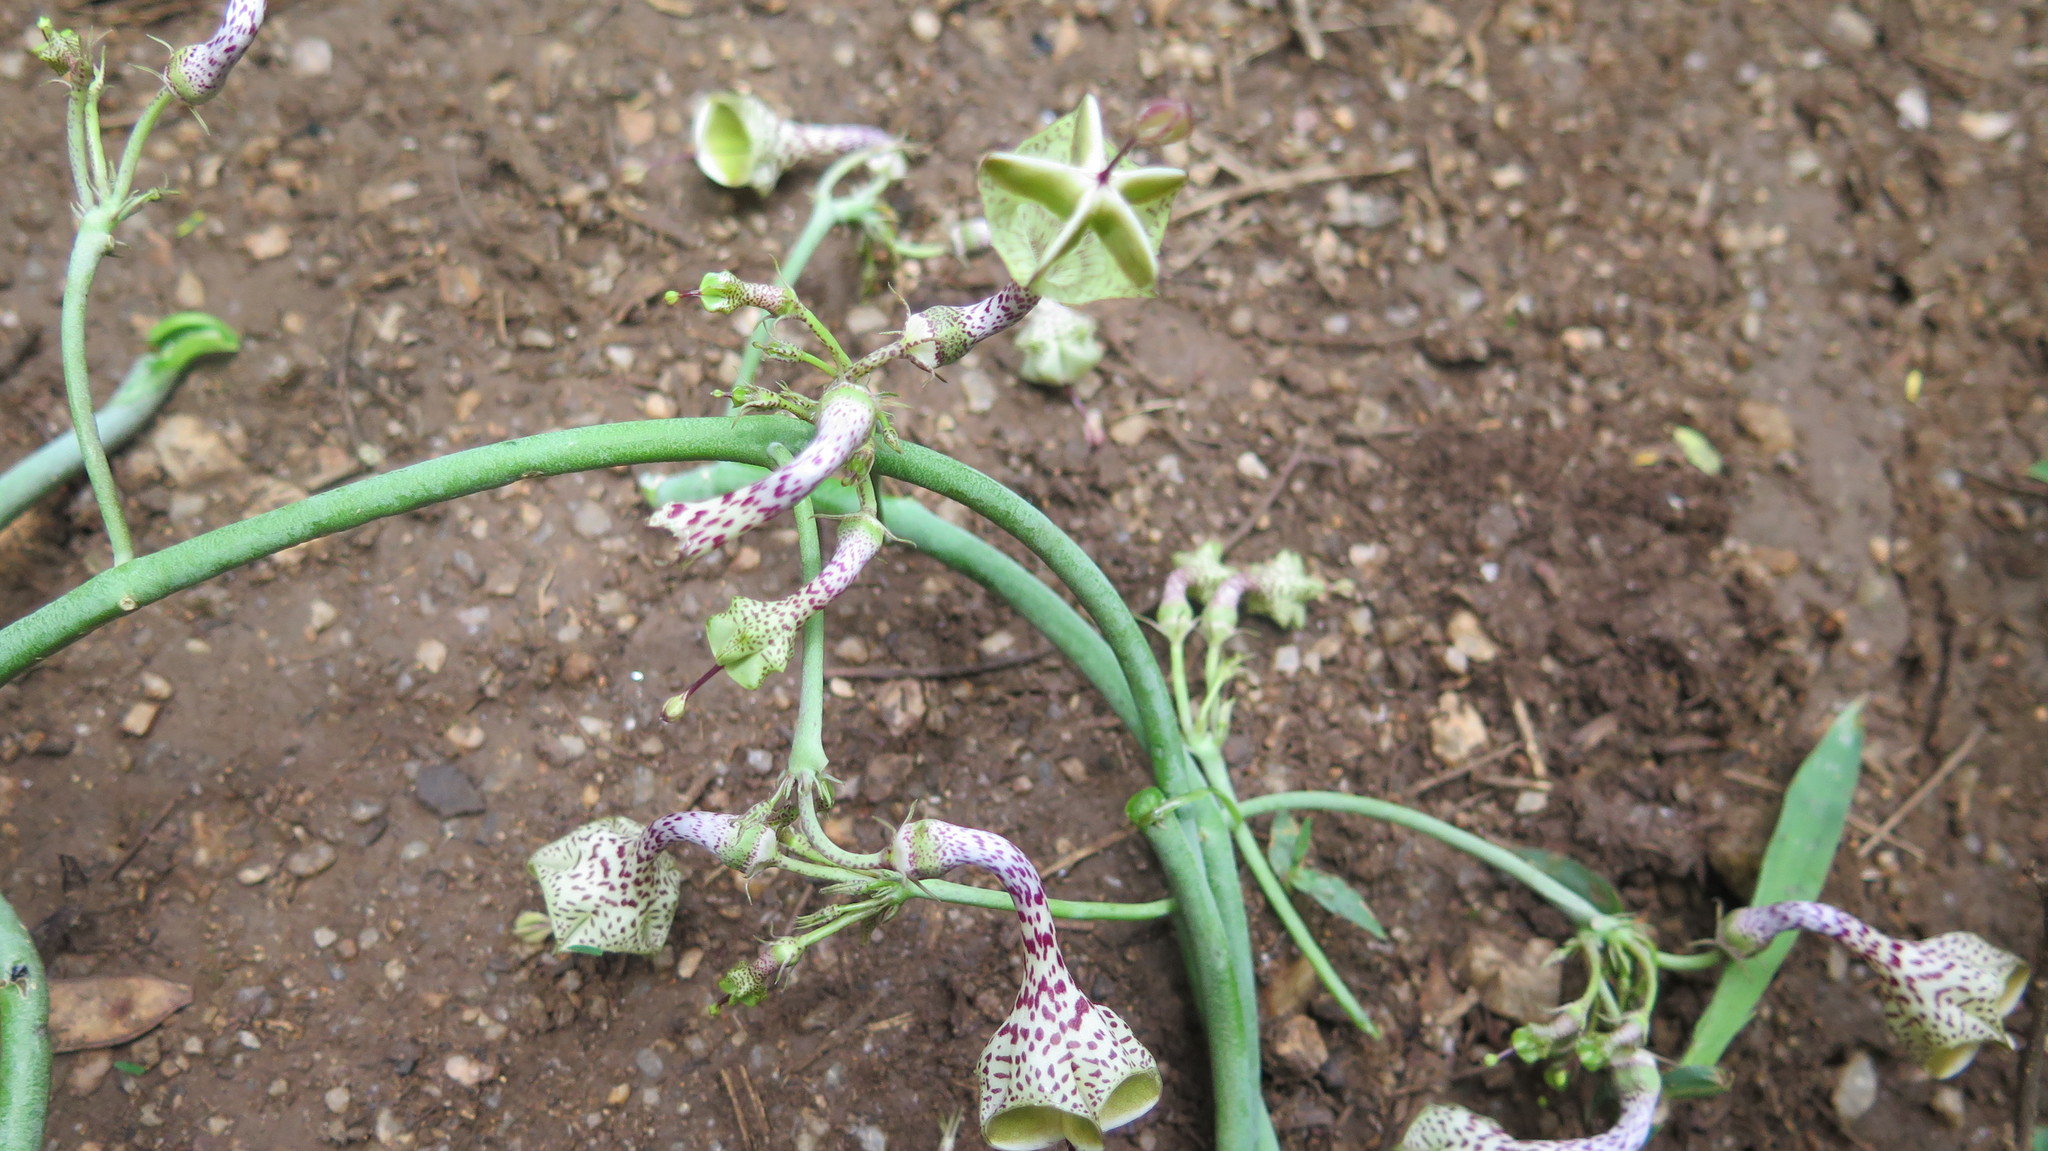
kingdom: Plantae
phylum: Tracheophyta
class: Magnoliopsida
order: Gentianales
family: Apocynaceae
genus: Ceropegia
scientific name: Ceropegia distincta
